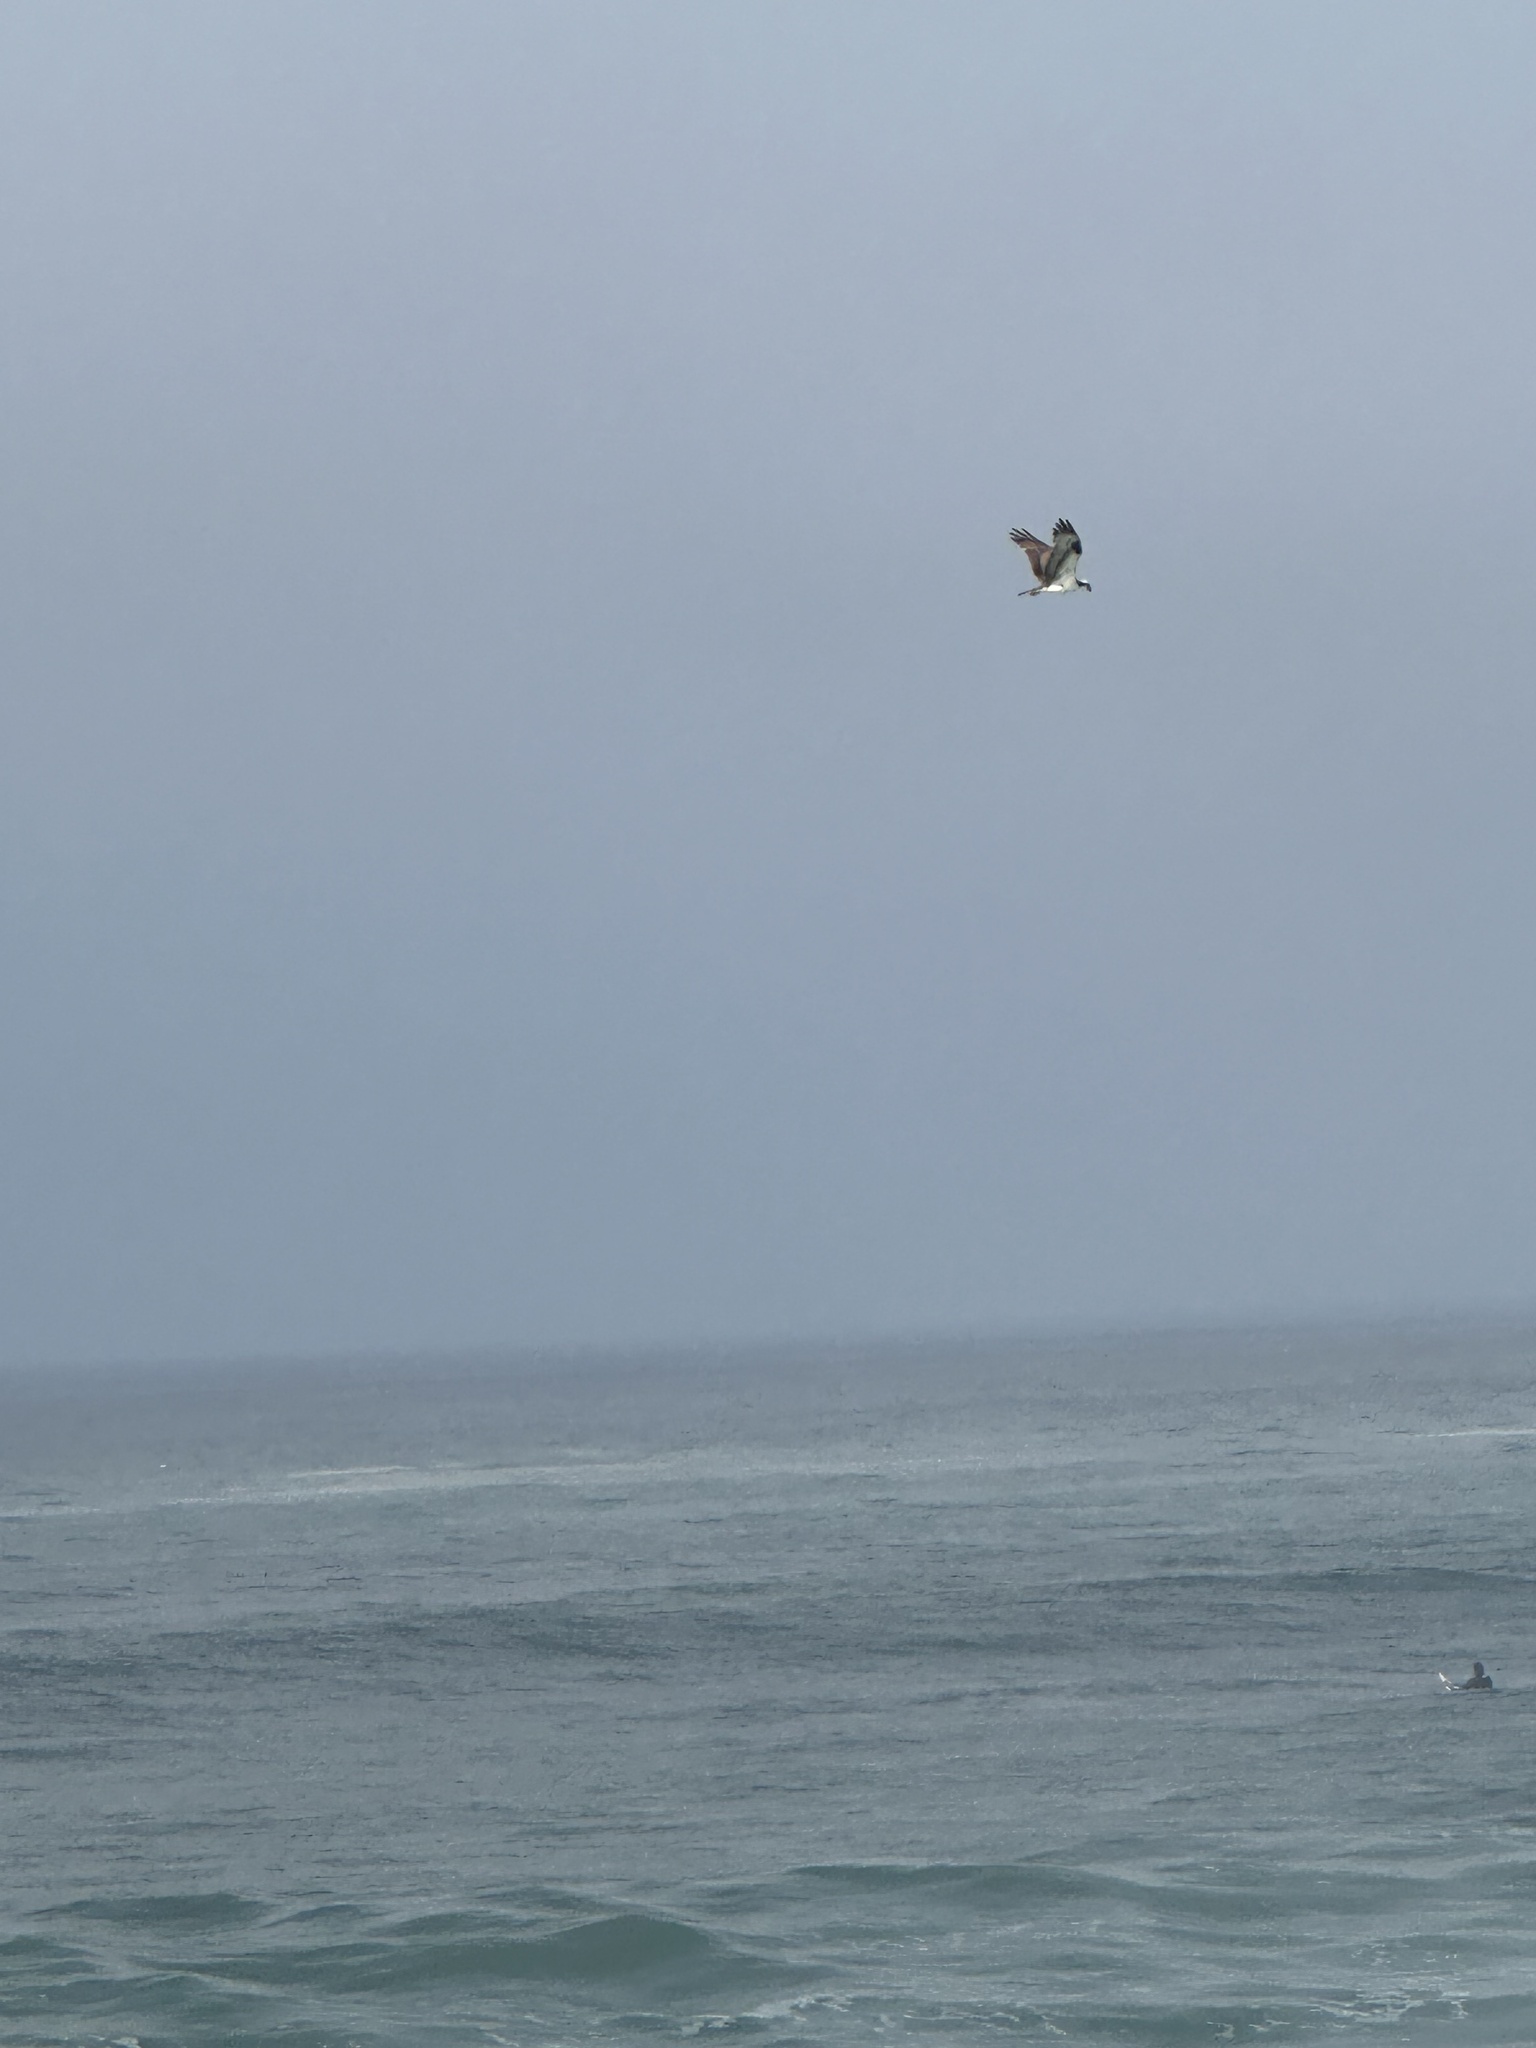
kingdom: Animalia
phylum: Chordata
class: Aves
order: Accipitriformes
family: Pandionidae
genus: Pandion
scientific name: Pandion haliaetus
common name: Osprey
